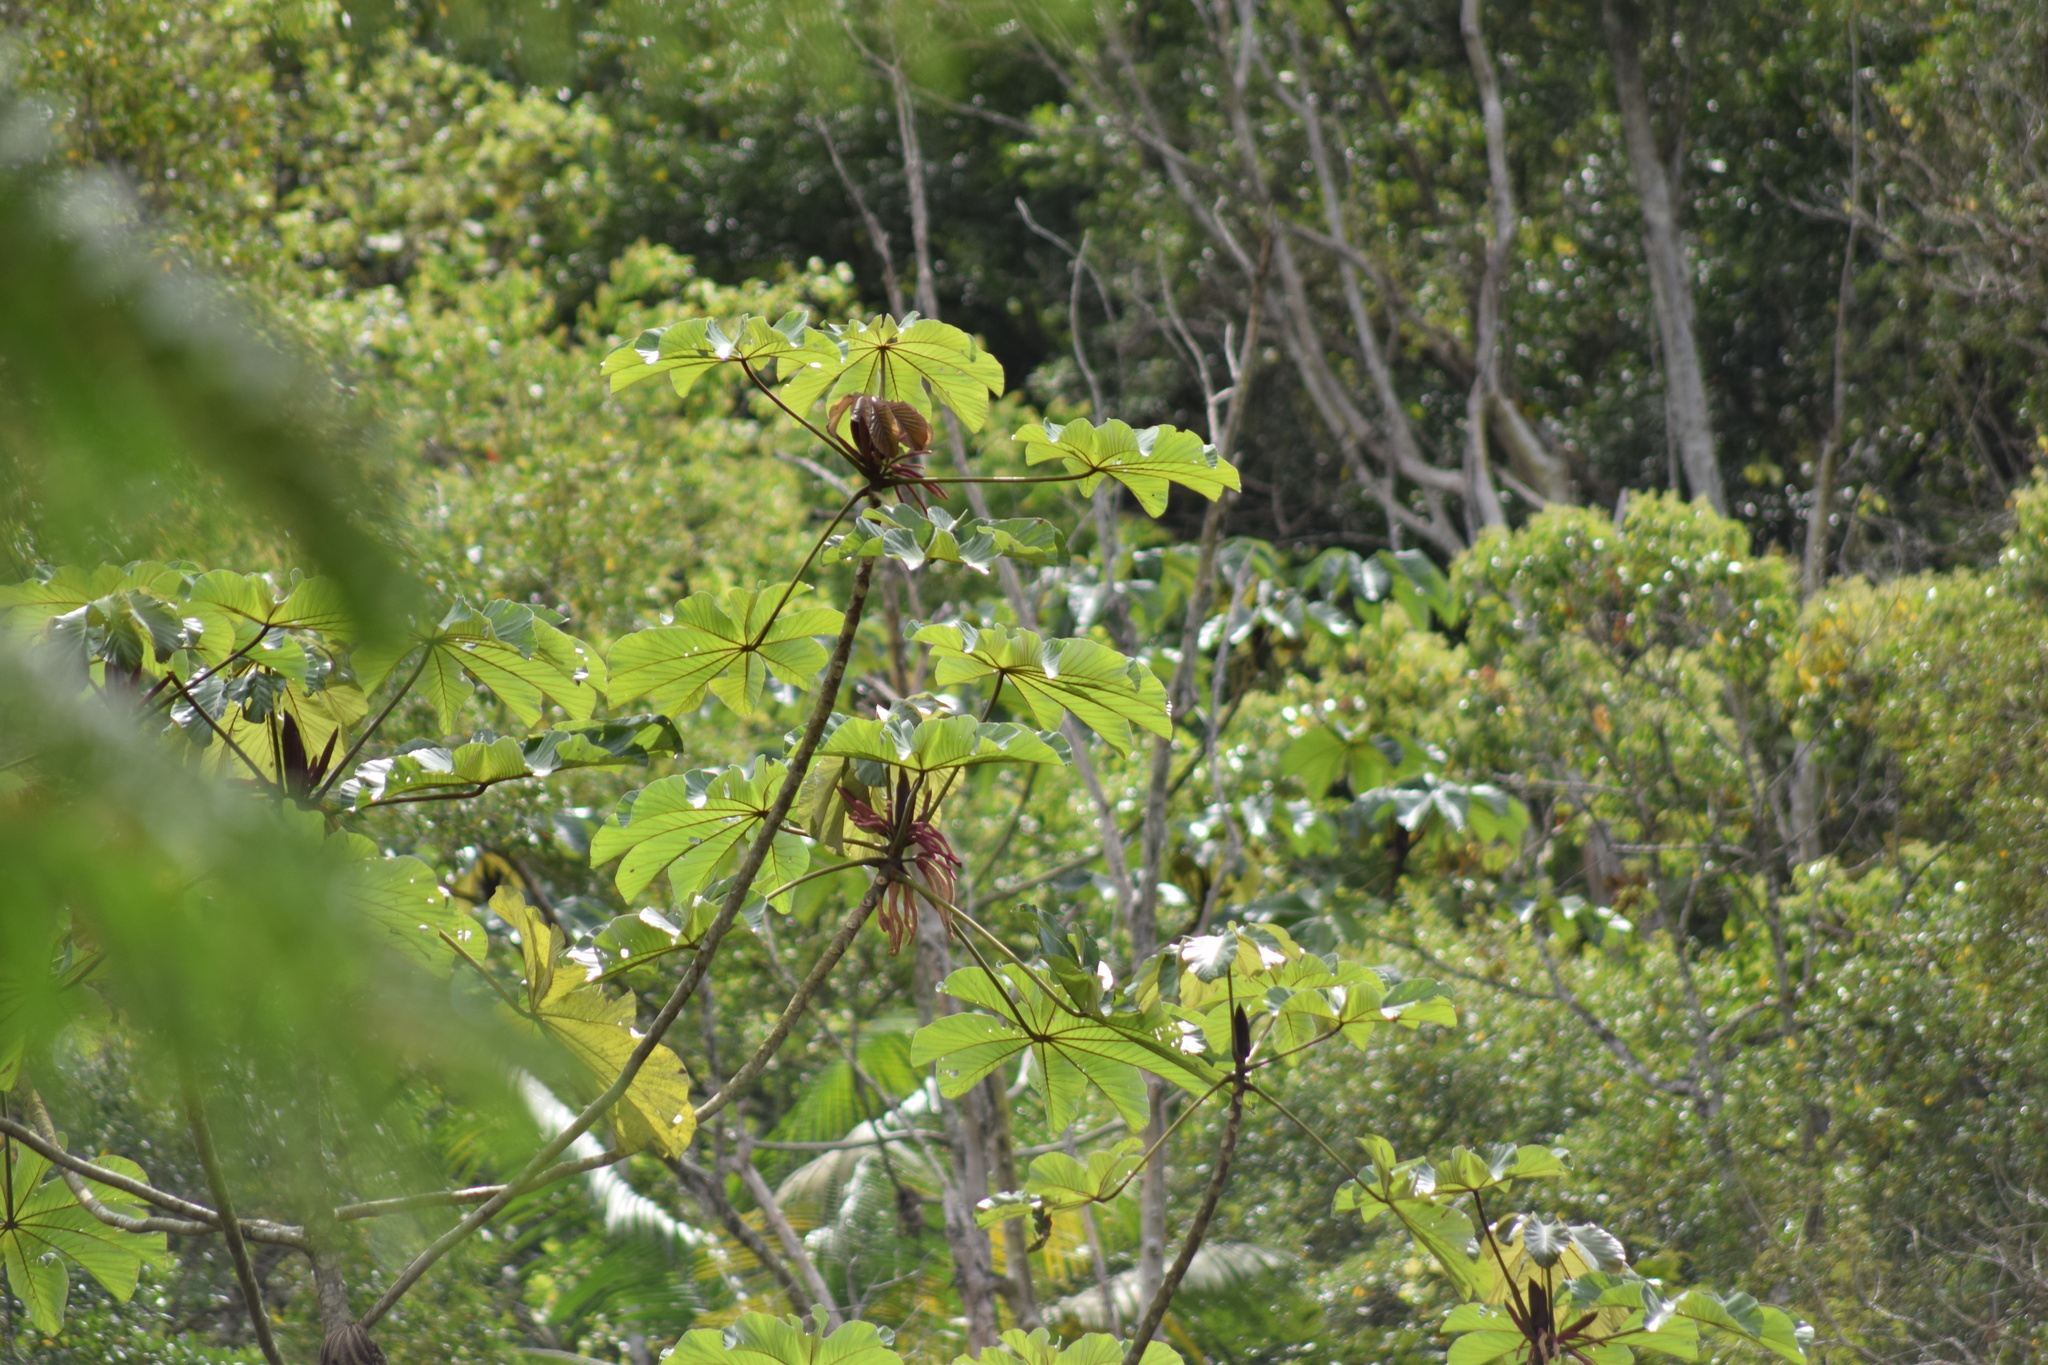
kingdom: Plantae
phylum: Tracheophyta
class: Magnoliopsida
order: Rosales
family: Urticaceae
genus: Cecropia
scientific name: Cecropia glaziovii
